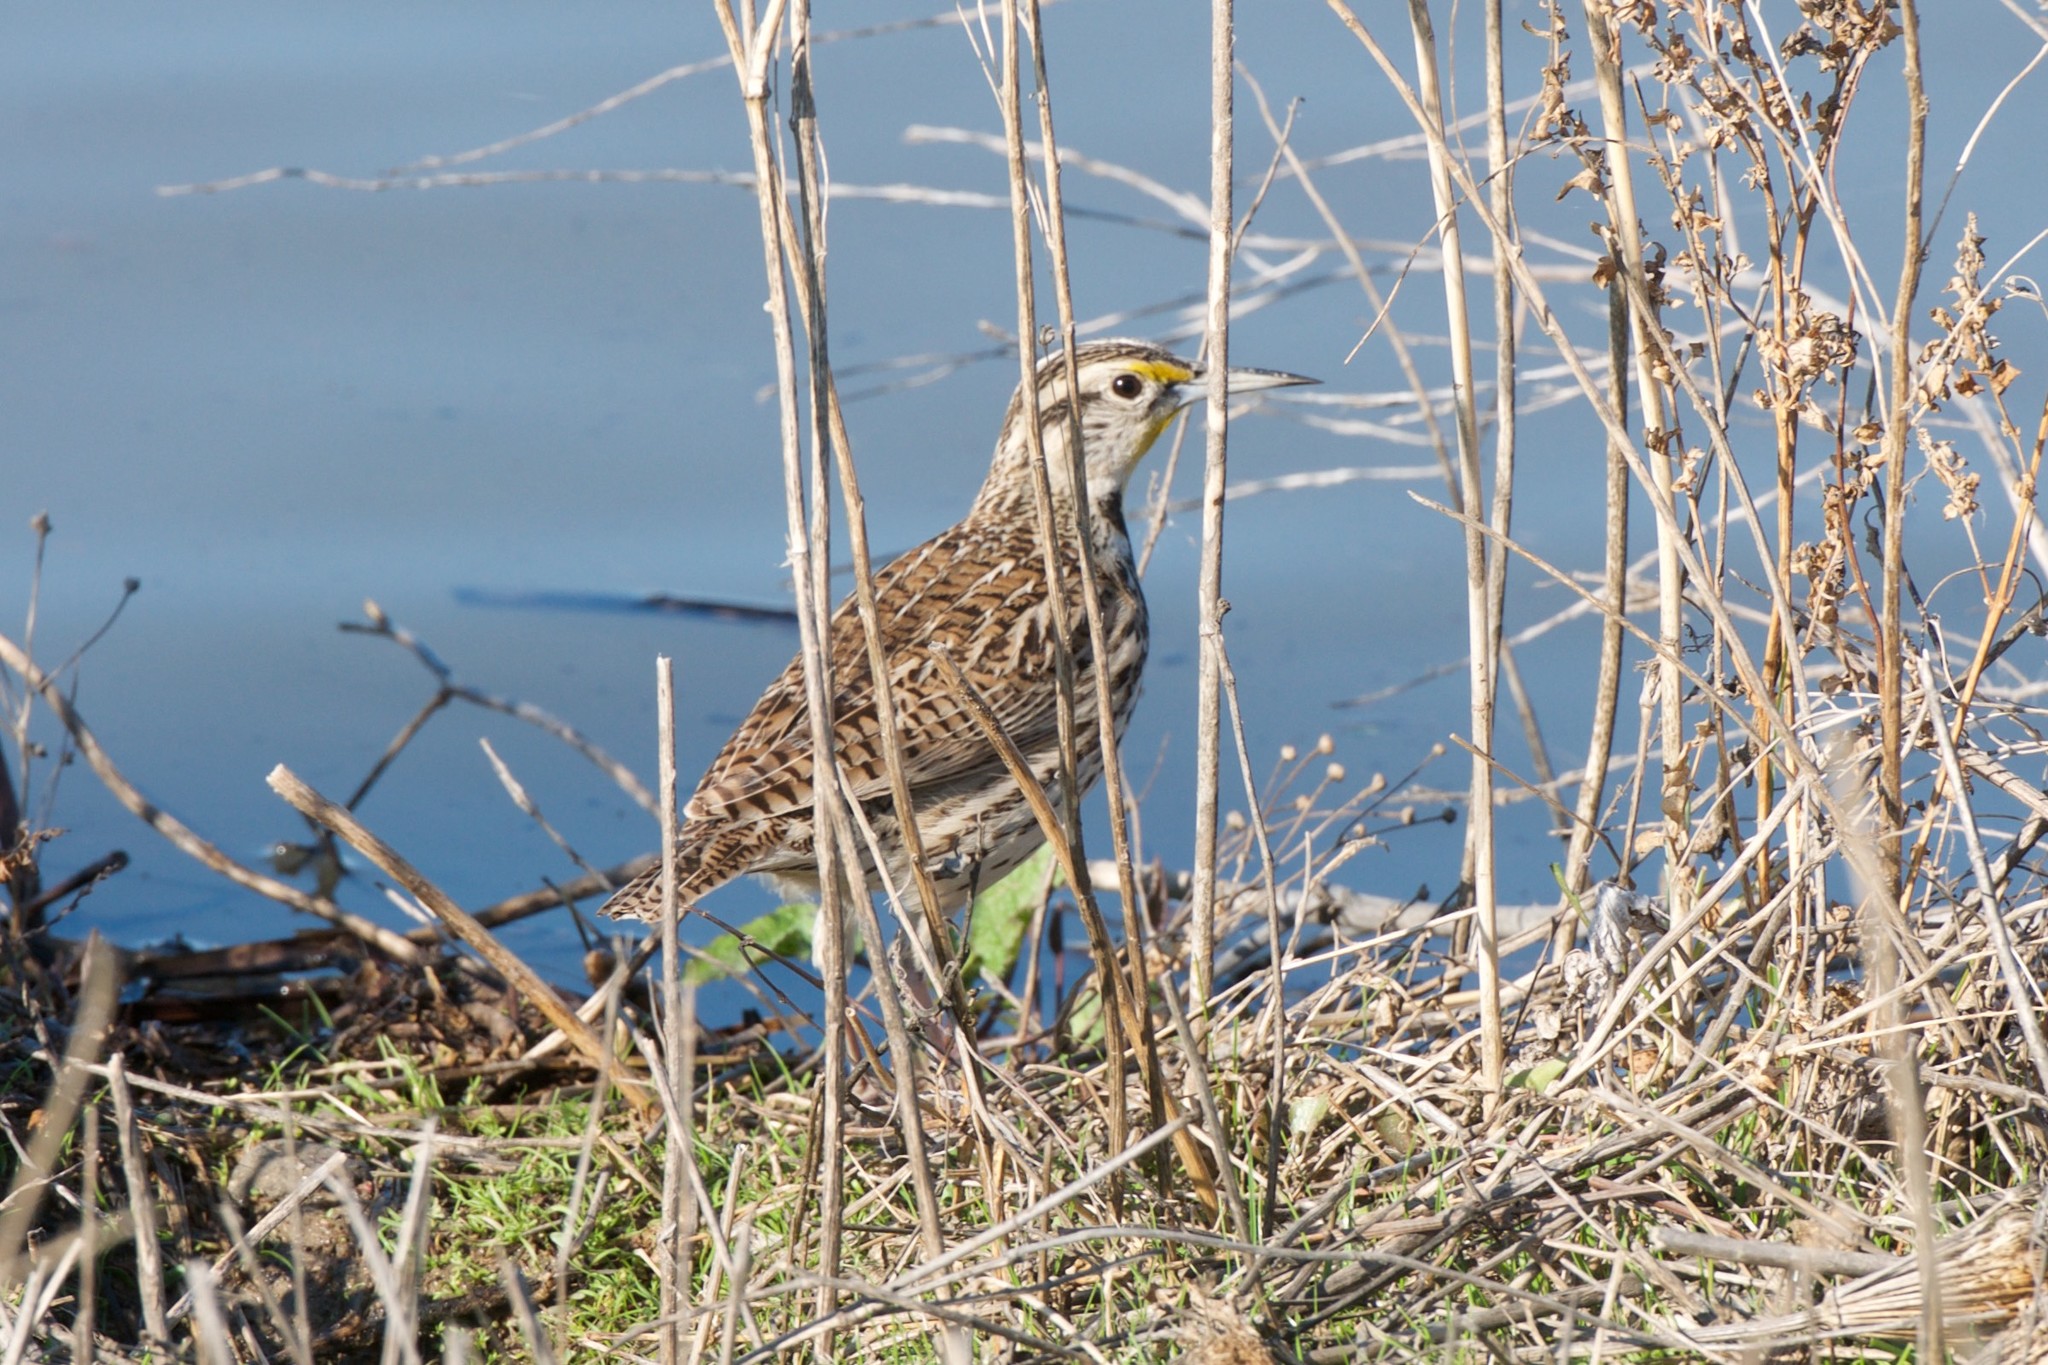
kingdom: Animalia
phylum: Chordata
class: Aves
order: Passeriformes
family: Icteridae
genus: Sturnella
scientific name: Sturnella neglecta
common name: Western meadowlark
